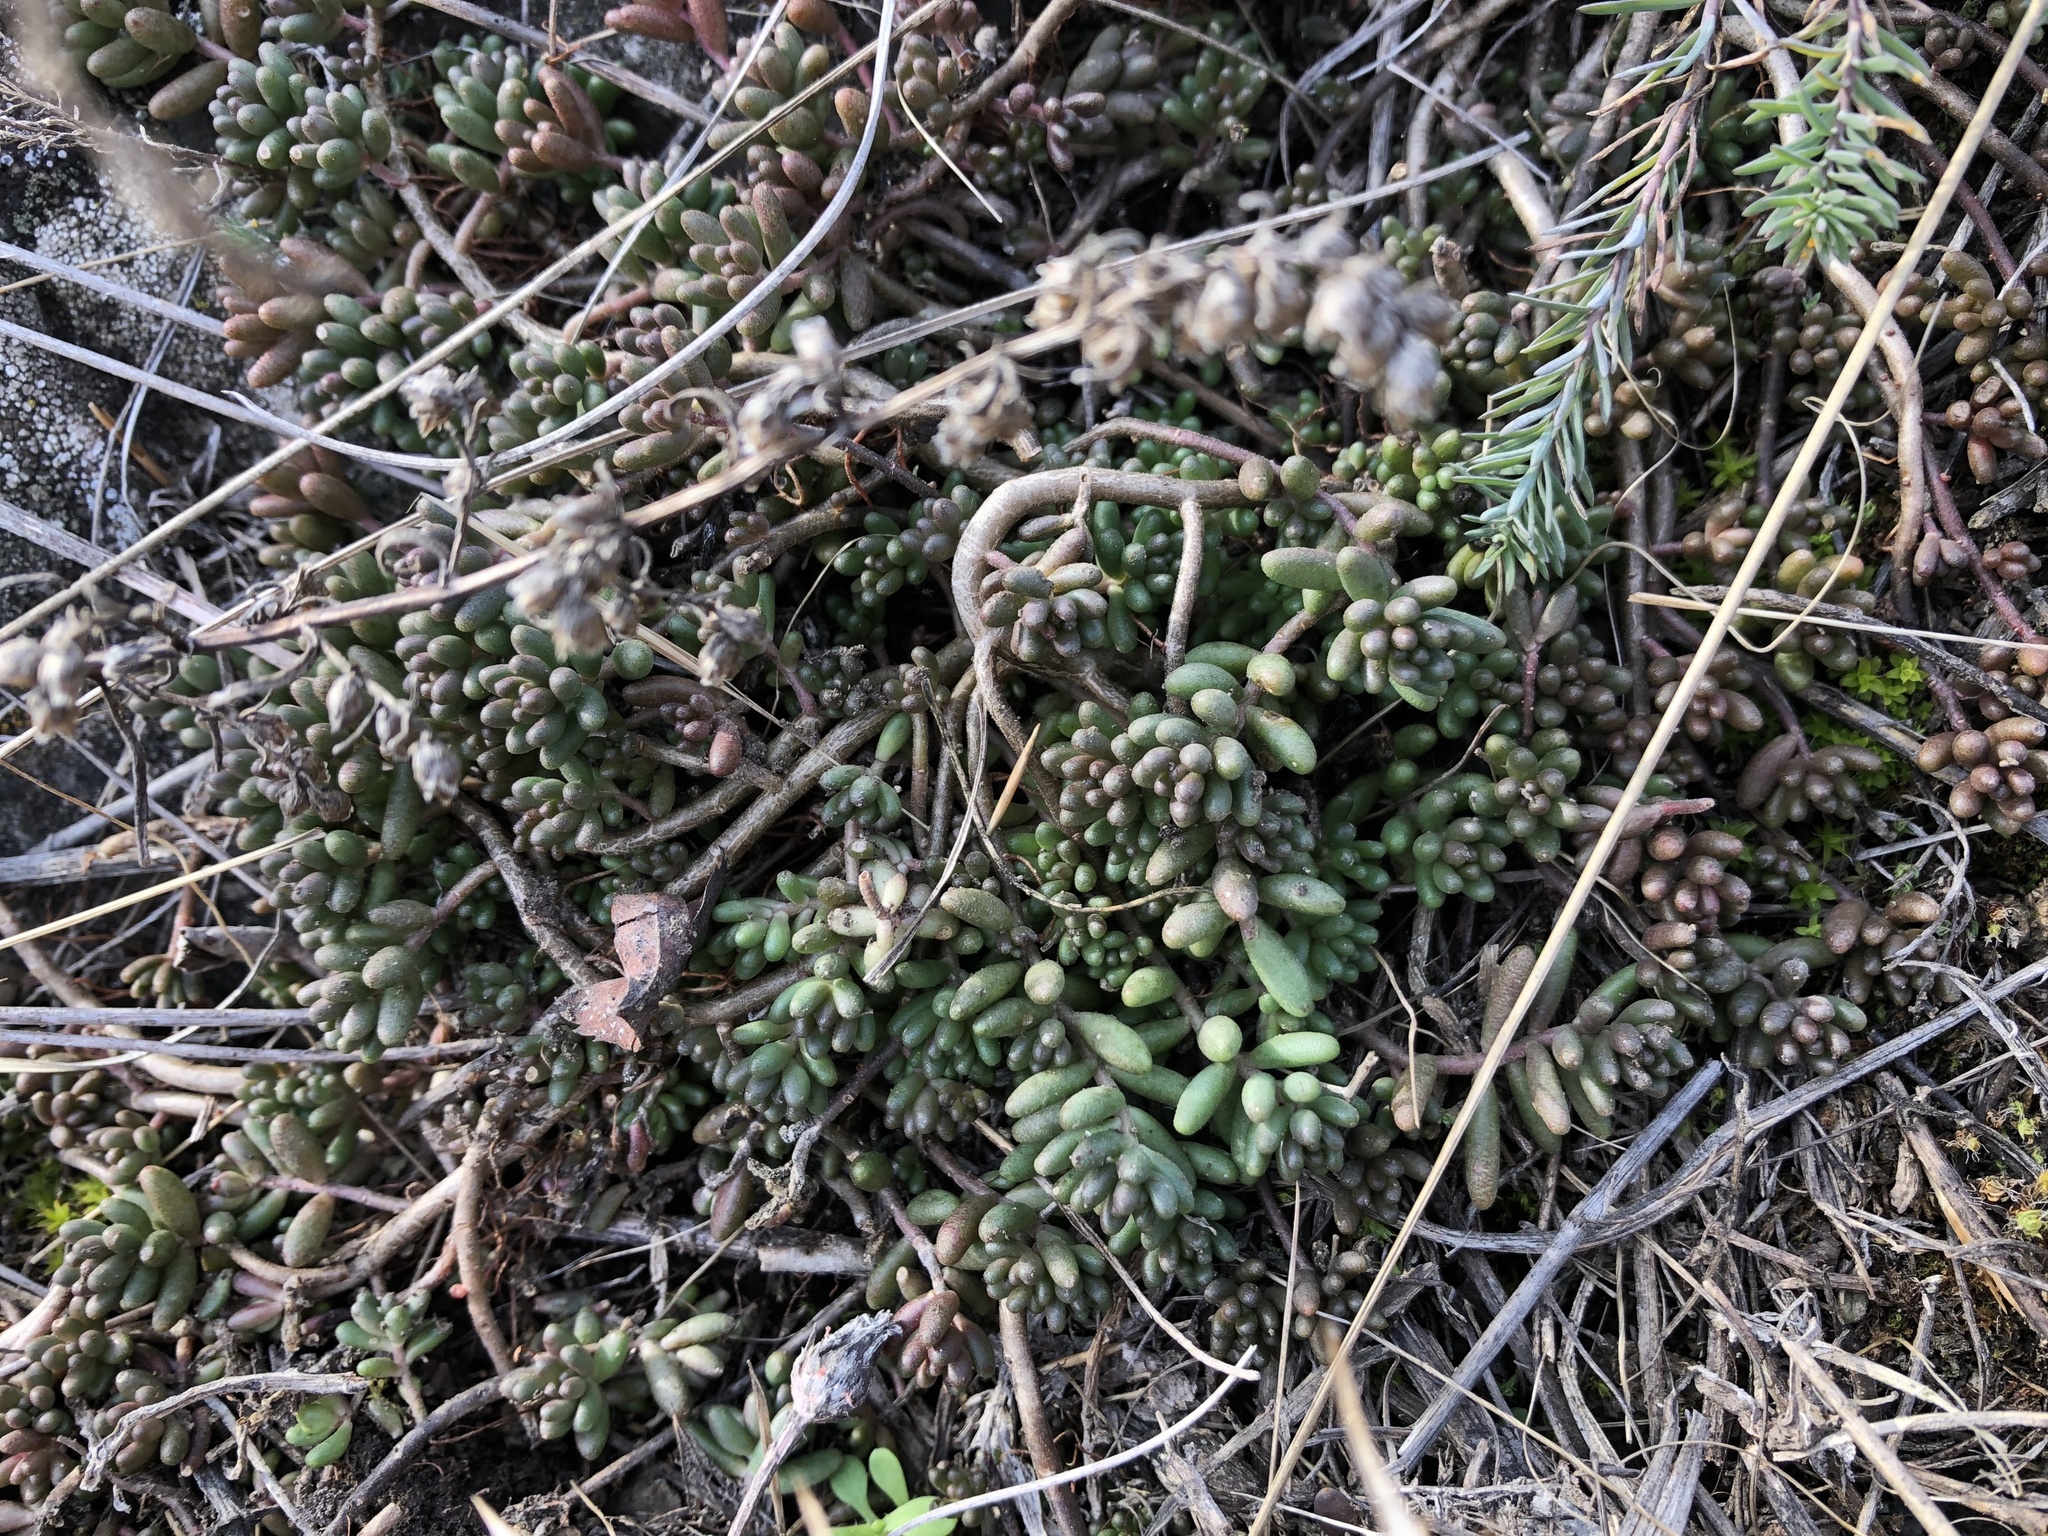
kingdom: Plantae
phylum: Tracheophyta
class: Magnoliopsida
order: Saxifragales
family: Crassulaceae
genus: Sedum
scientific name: Sedum album
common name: White stonecrop
